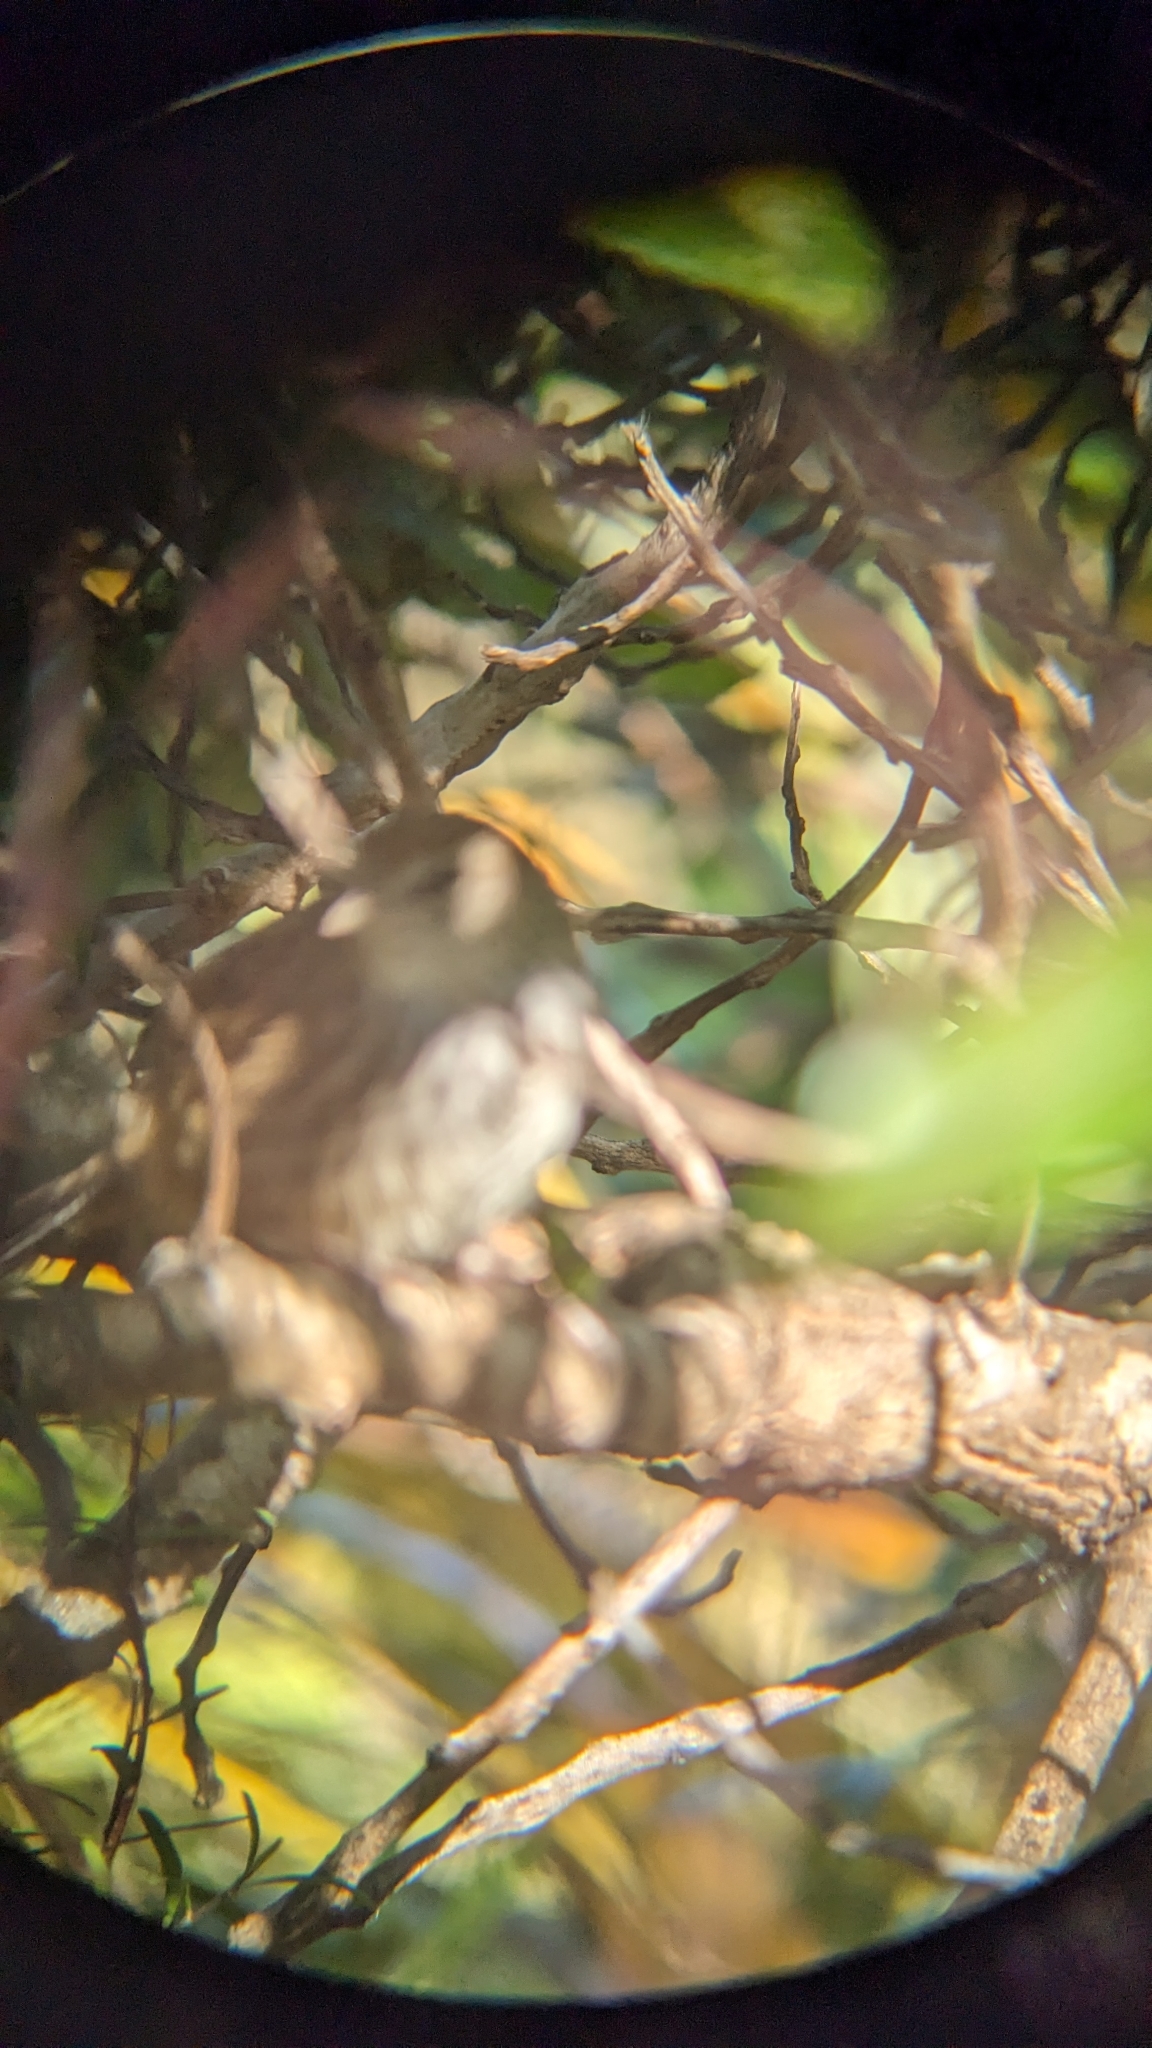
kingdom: Animalia
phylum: Chordata
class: Aves
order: Passeriformes
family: Locustellidae
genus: Megalurus
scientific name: Megalurus punctatus
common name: New zealand fernbird
